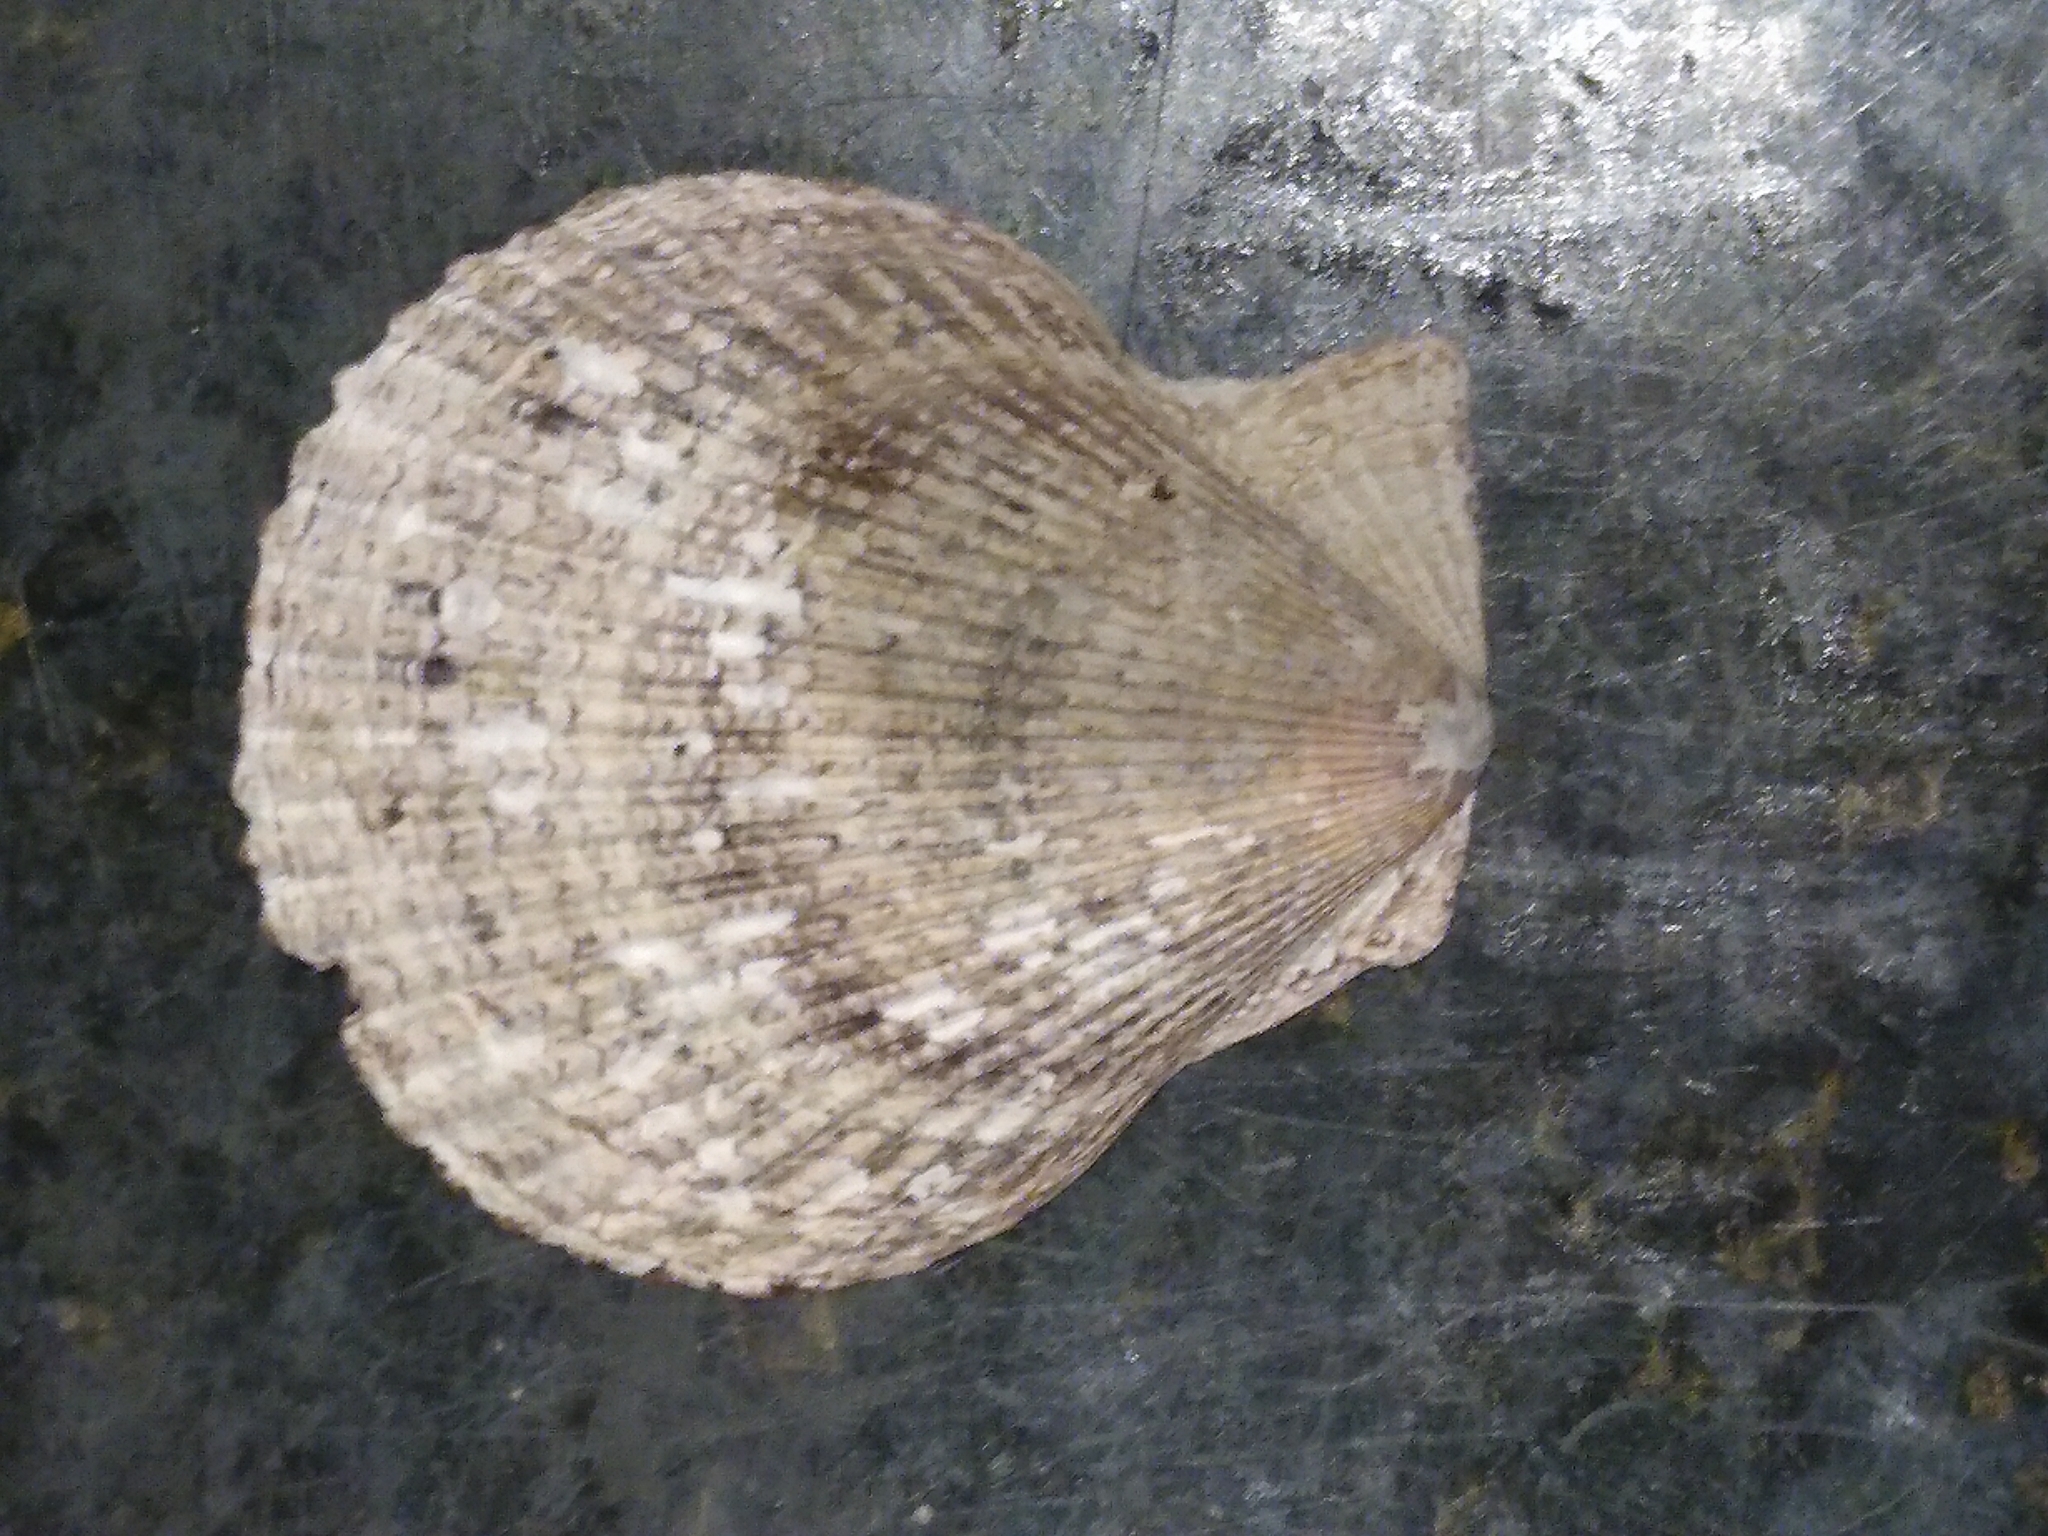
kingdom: Animalia
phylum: Mollusca
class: Bivalvia
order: Pectinida
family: Pectinidae
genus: Mimachlamys
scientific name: Mimachlamys varia
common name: Variegated scallop
